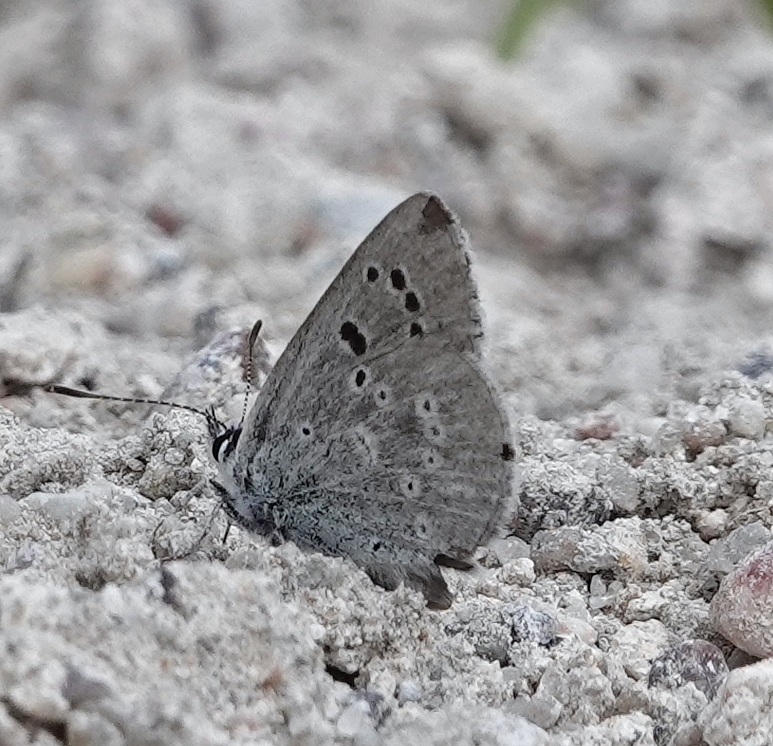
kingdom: Animalia
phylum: Arthropoda
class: Insecta
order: Lepidoptera
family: Lycaenidae
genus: Icaricia
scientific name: Icaricia icarioides
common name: Boisduval's blue
